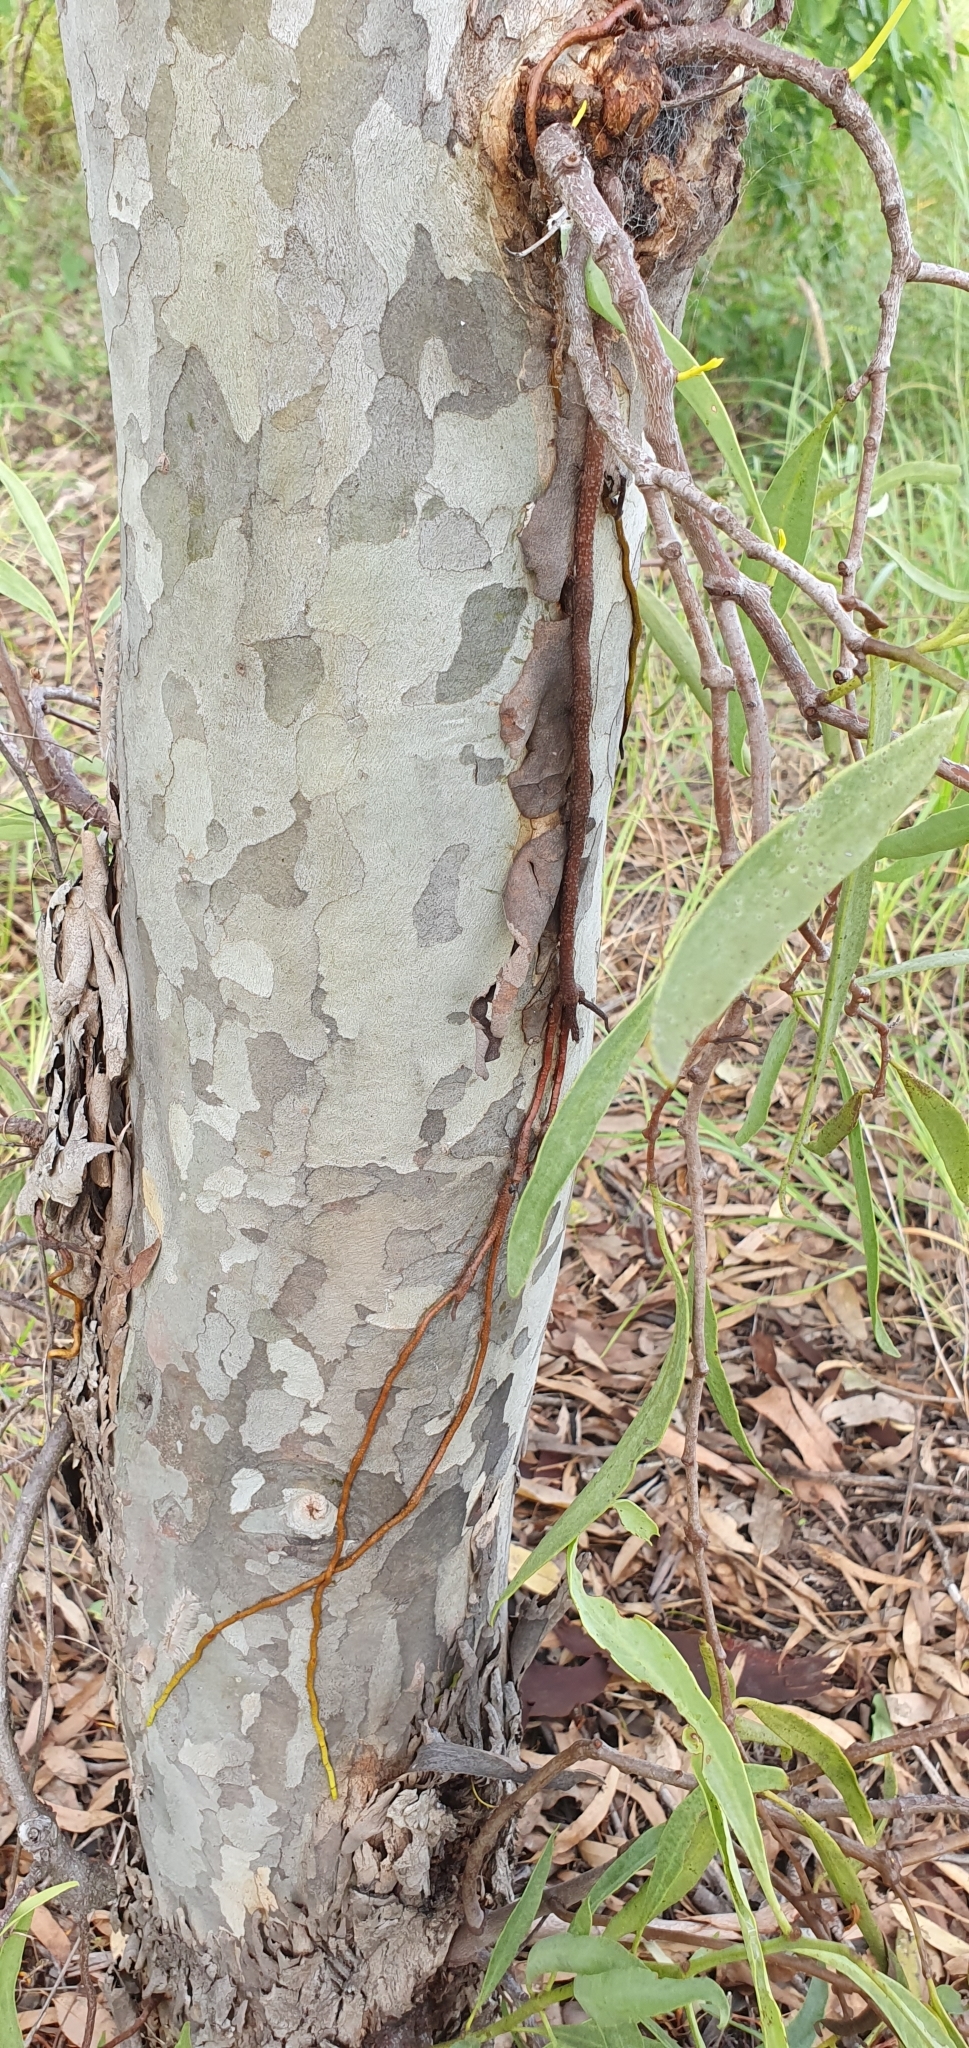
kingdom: Plantae
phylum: Tracheophyta
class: Magnoliopsida
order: Santalales
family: Loranthaceae
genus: Dendrophthoe
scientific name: Dendrophthoe glabrescens
